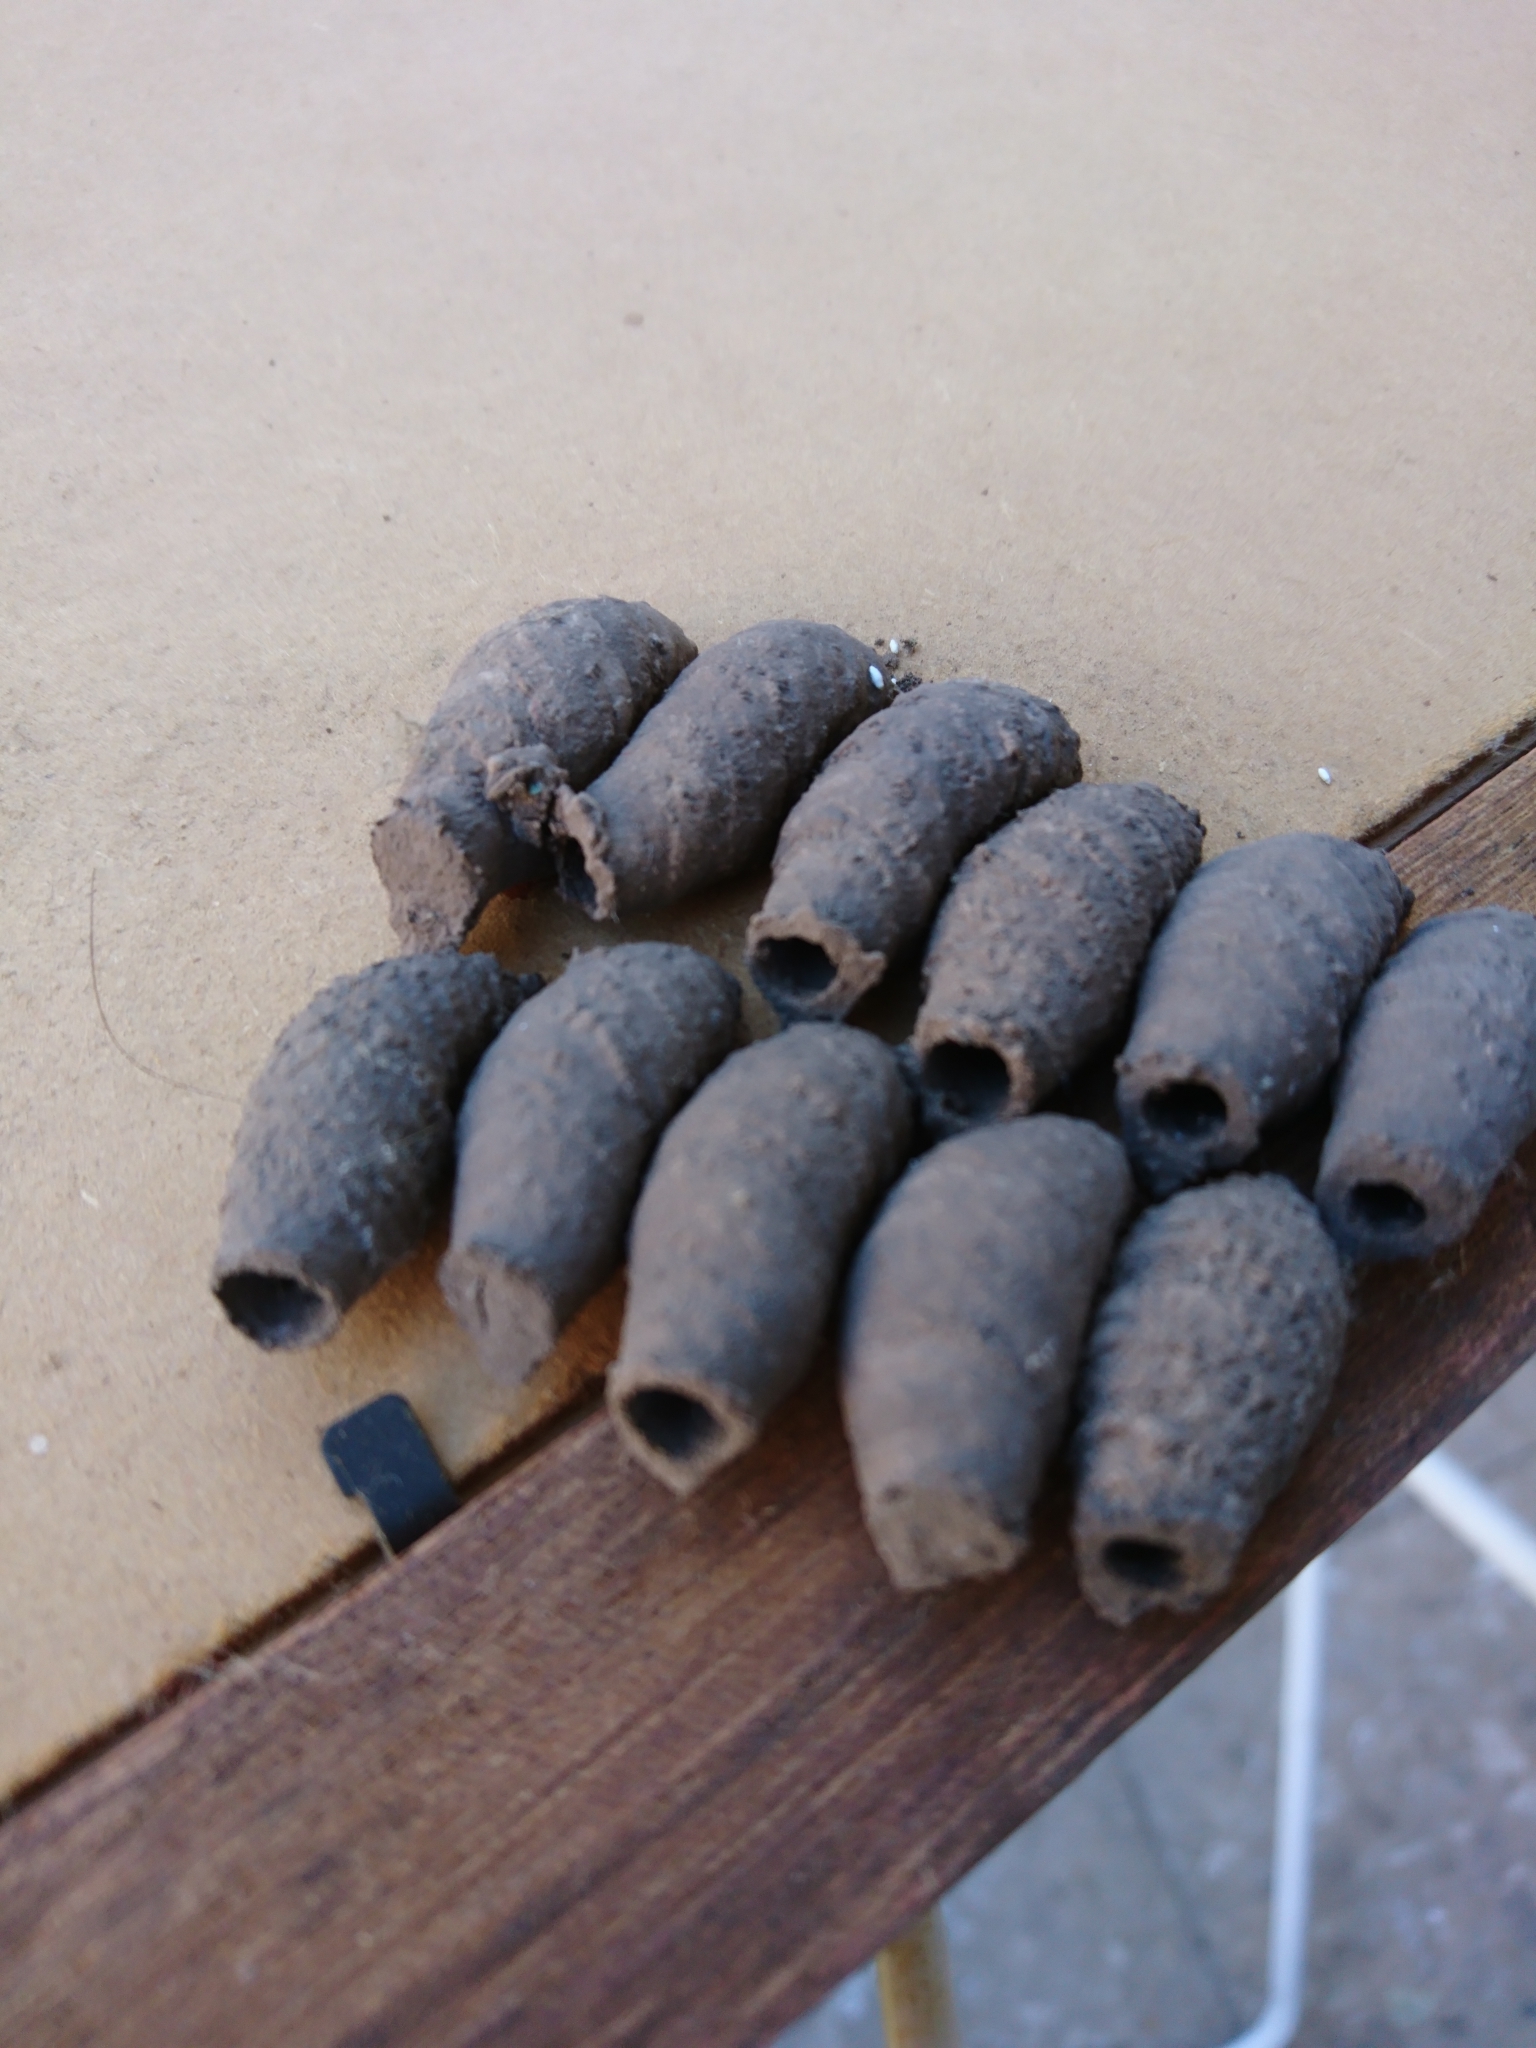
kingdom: Animalia
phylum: Arthropoda
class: Insecta
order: Hymenoptera
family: Sphecidae
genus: Sceliphron
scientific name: Sceliphron curvatum
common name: Pèlopèe
